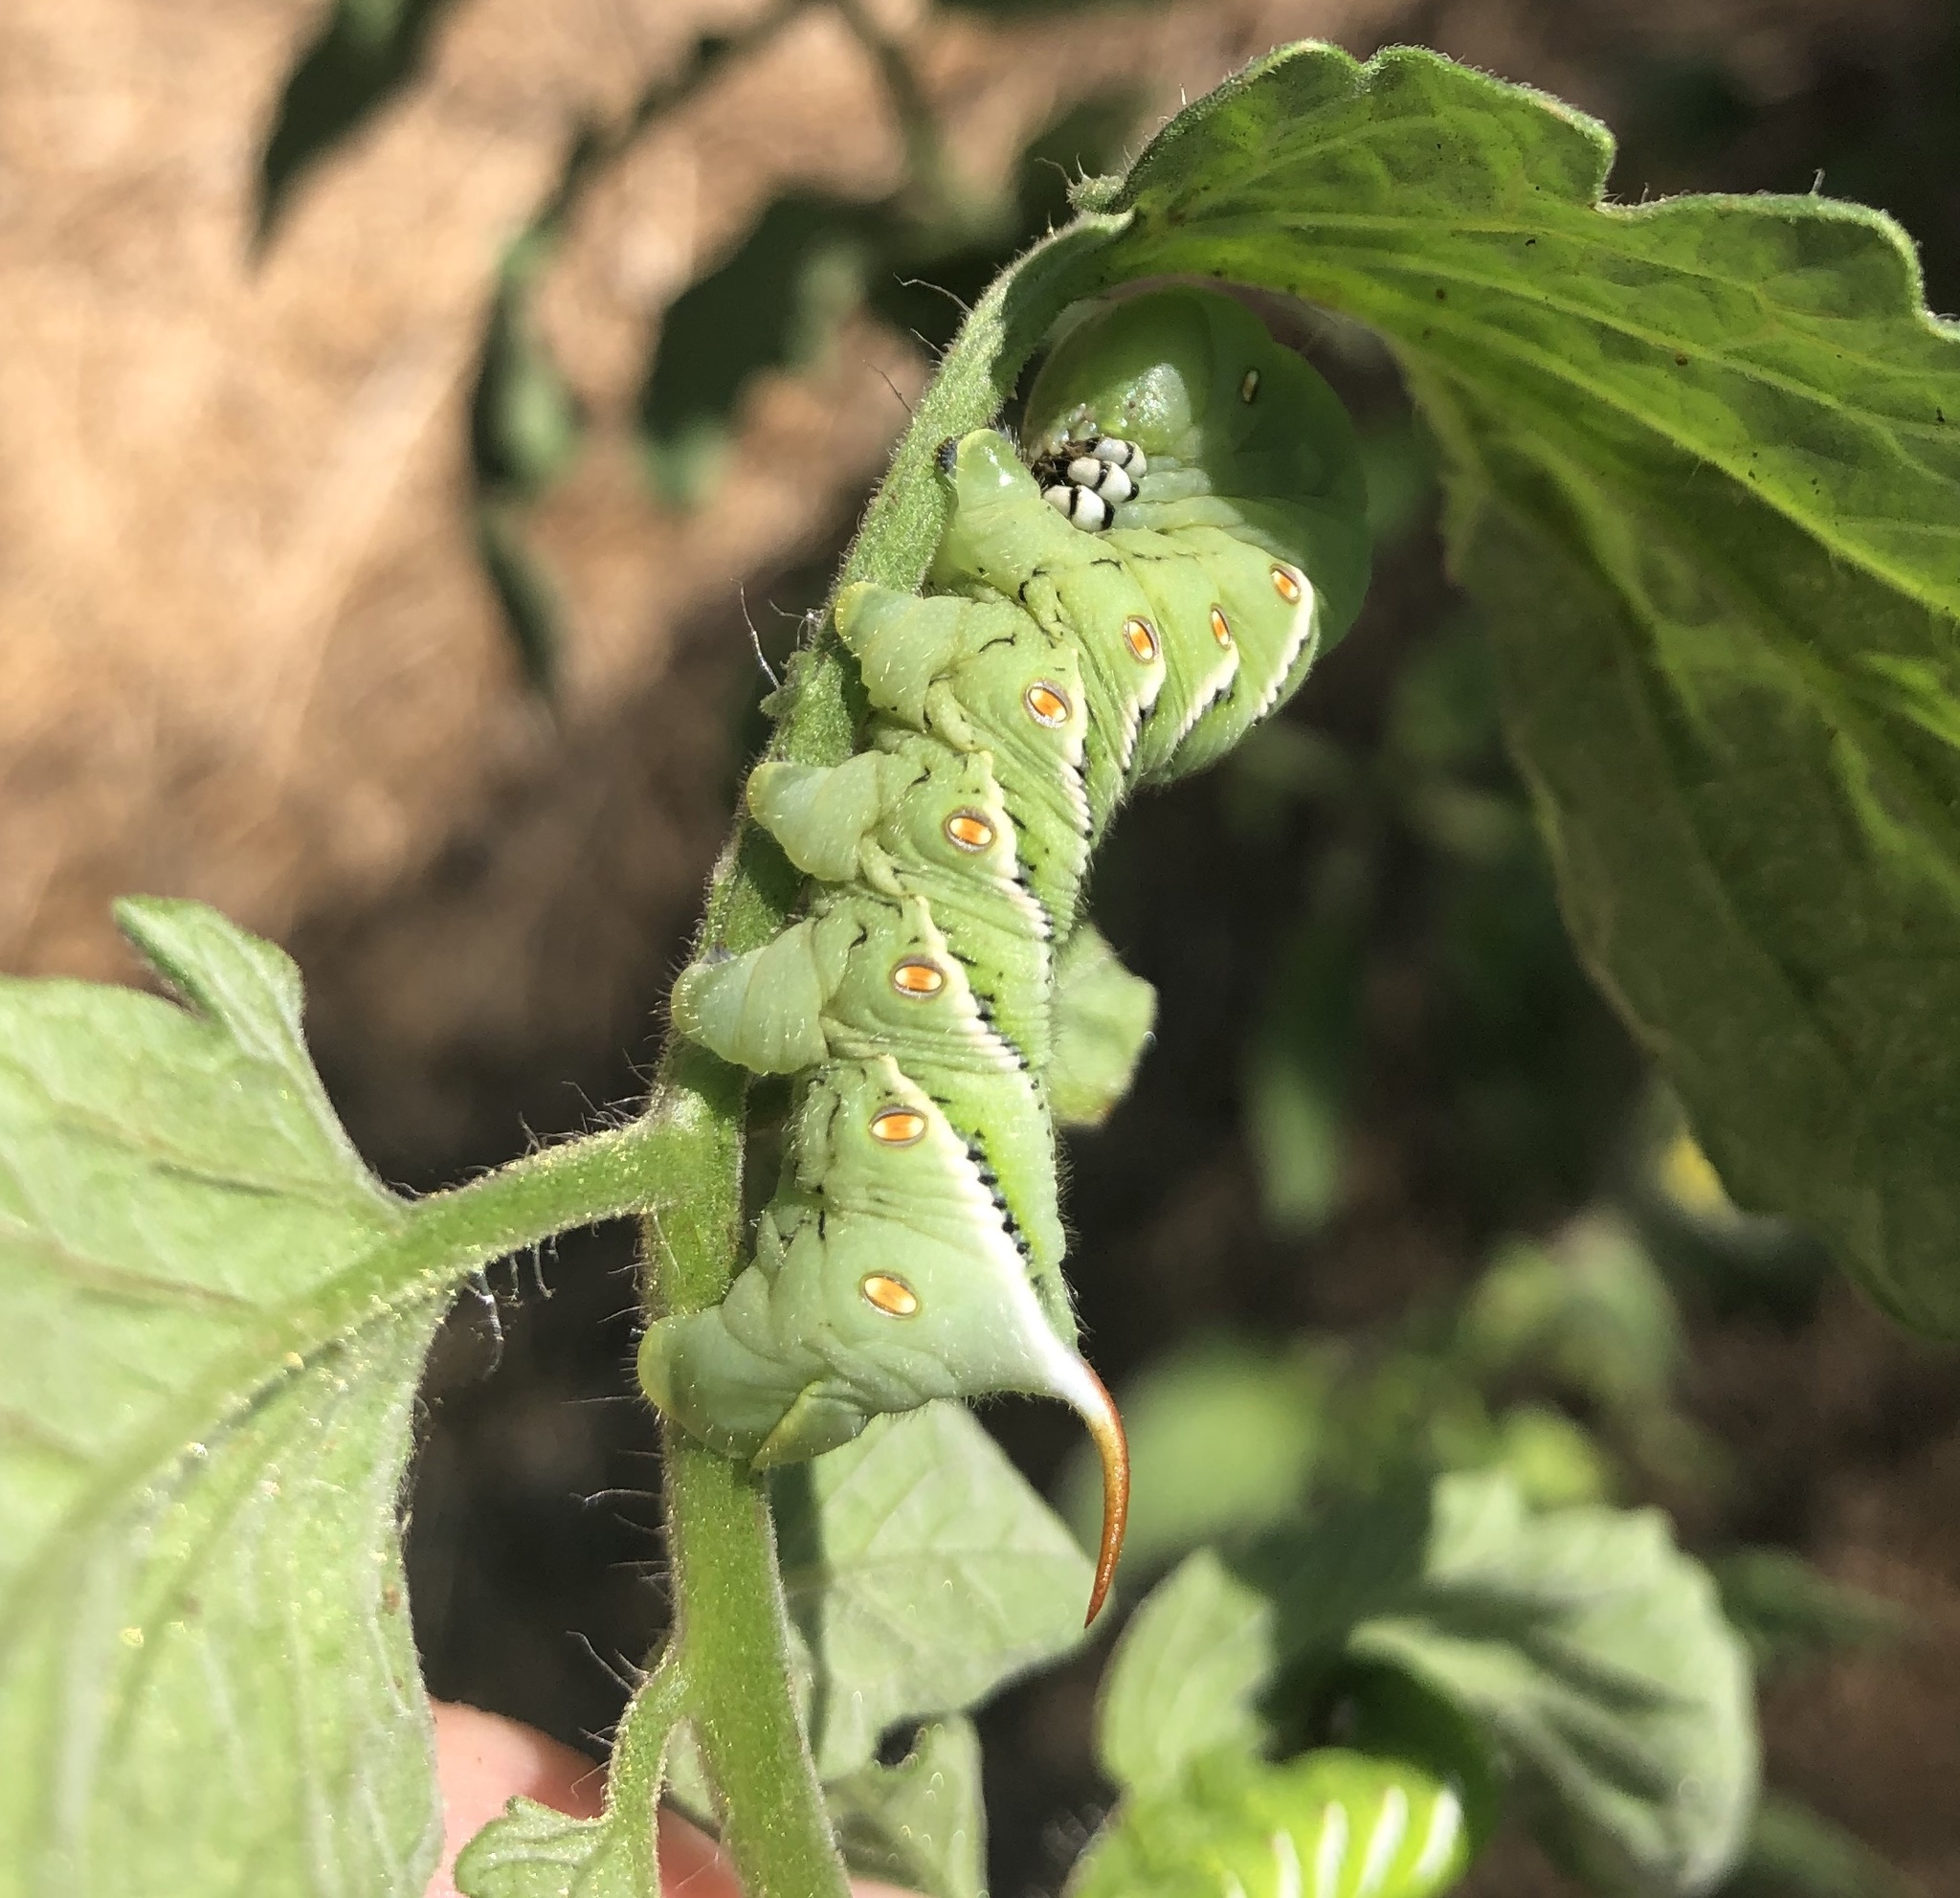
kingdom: Animalia
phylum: Arthropoda
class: Insecta
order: Lepidoptera
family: Sphingidae
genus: Manduca
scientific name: Manduca sexta
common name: Carolina sphinx
